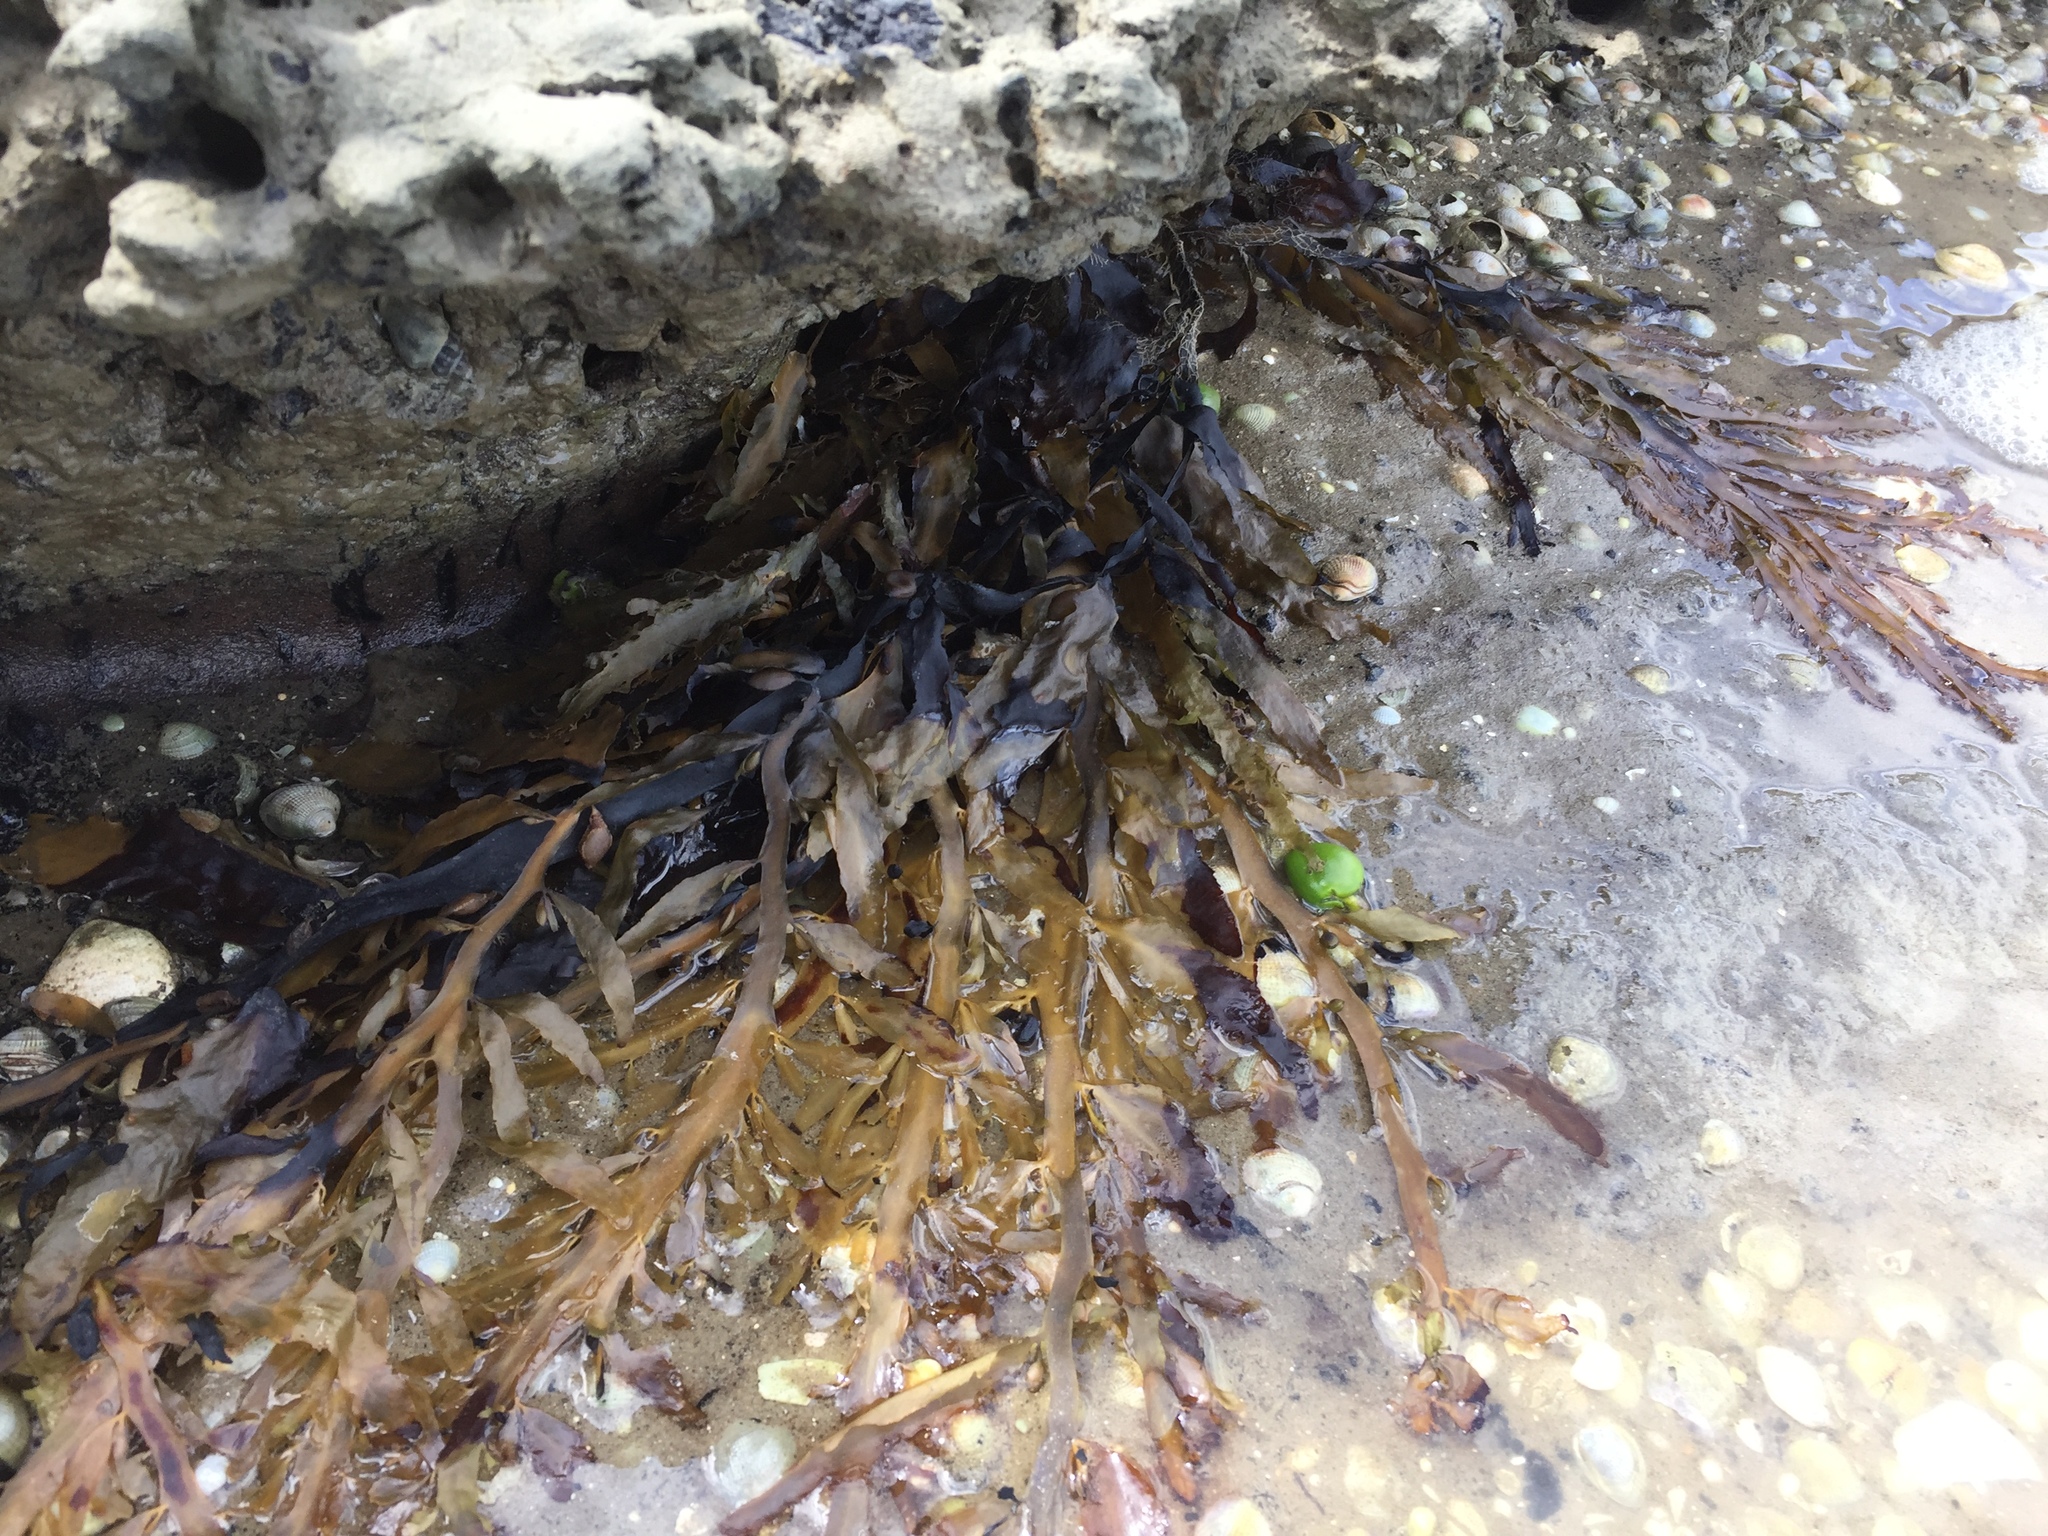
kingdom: Chromista
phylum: Ochrophyta
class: Phaeophyceae
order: Fucales
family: Sargassaceae
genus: Carpophyllum
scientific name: Carpophyllum flexuosum
